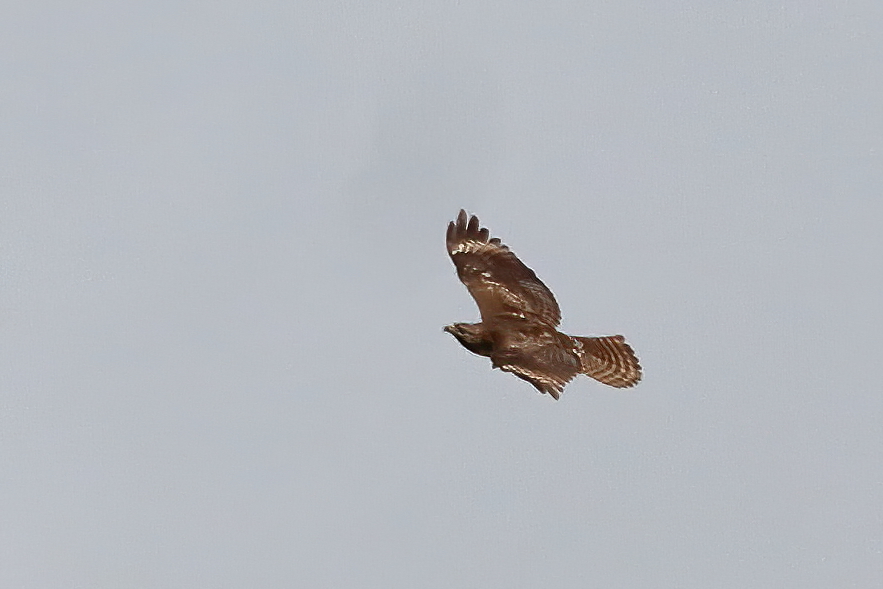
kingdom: Animalia
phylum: Chordata
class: Aves
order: Accipitriformes
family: Accipitridae
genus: Buteo
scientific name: Buteo jamaicensis
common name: Red-tailed hawk
